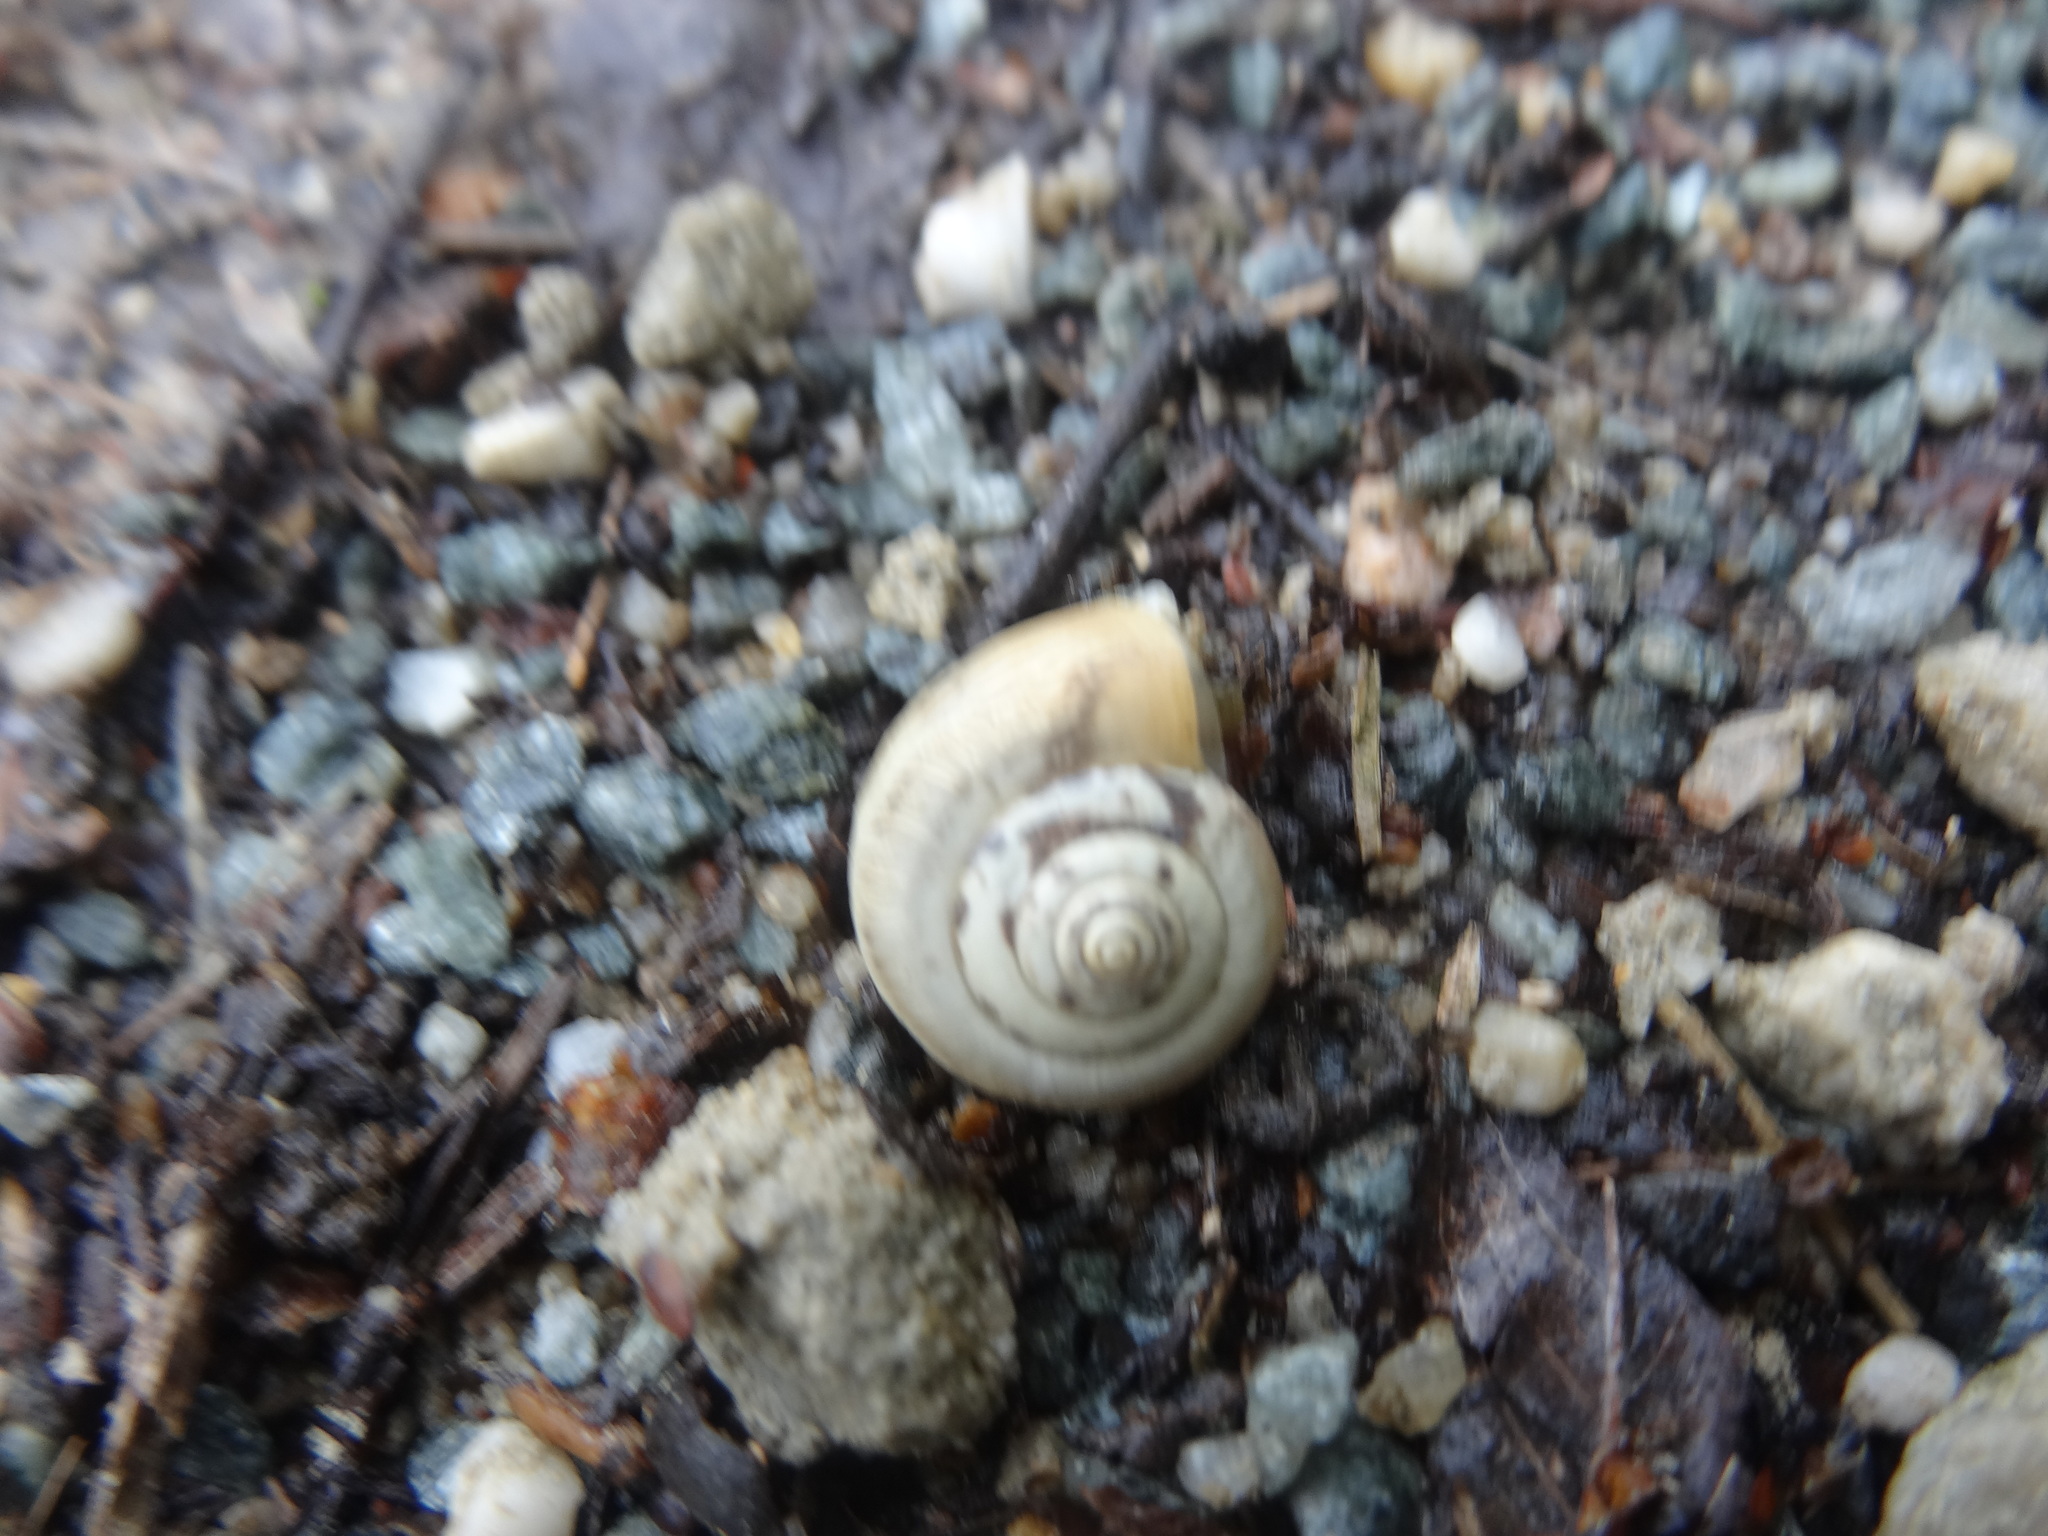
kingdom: Animalia
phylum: Mollusca
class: Gastropoda
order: Stylommatophora
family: Hygromiidae
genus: Monacha
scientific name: Monacha cartusiana
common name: Carthusian snail
